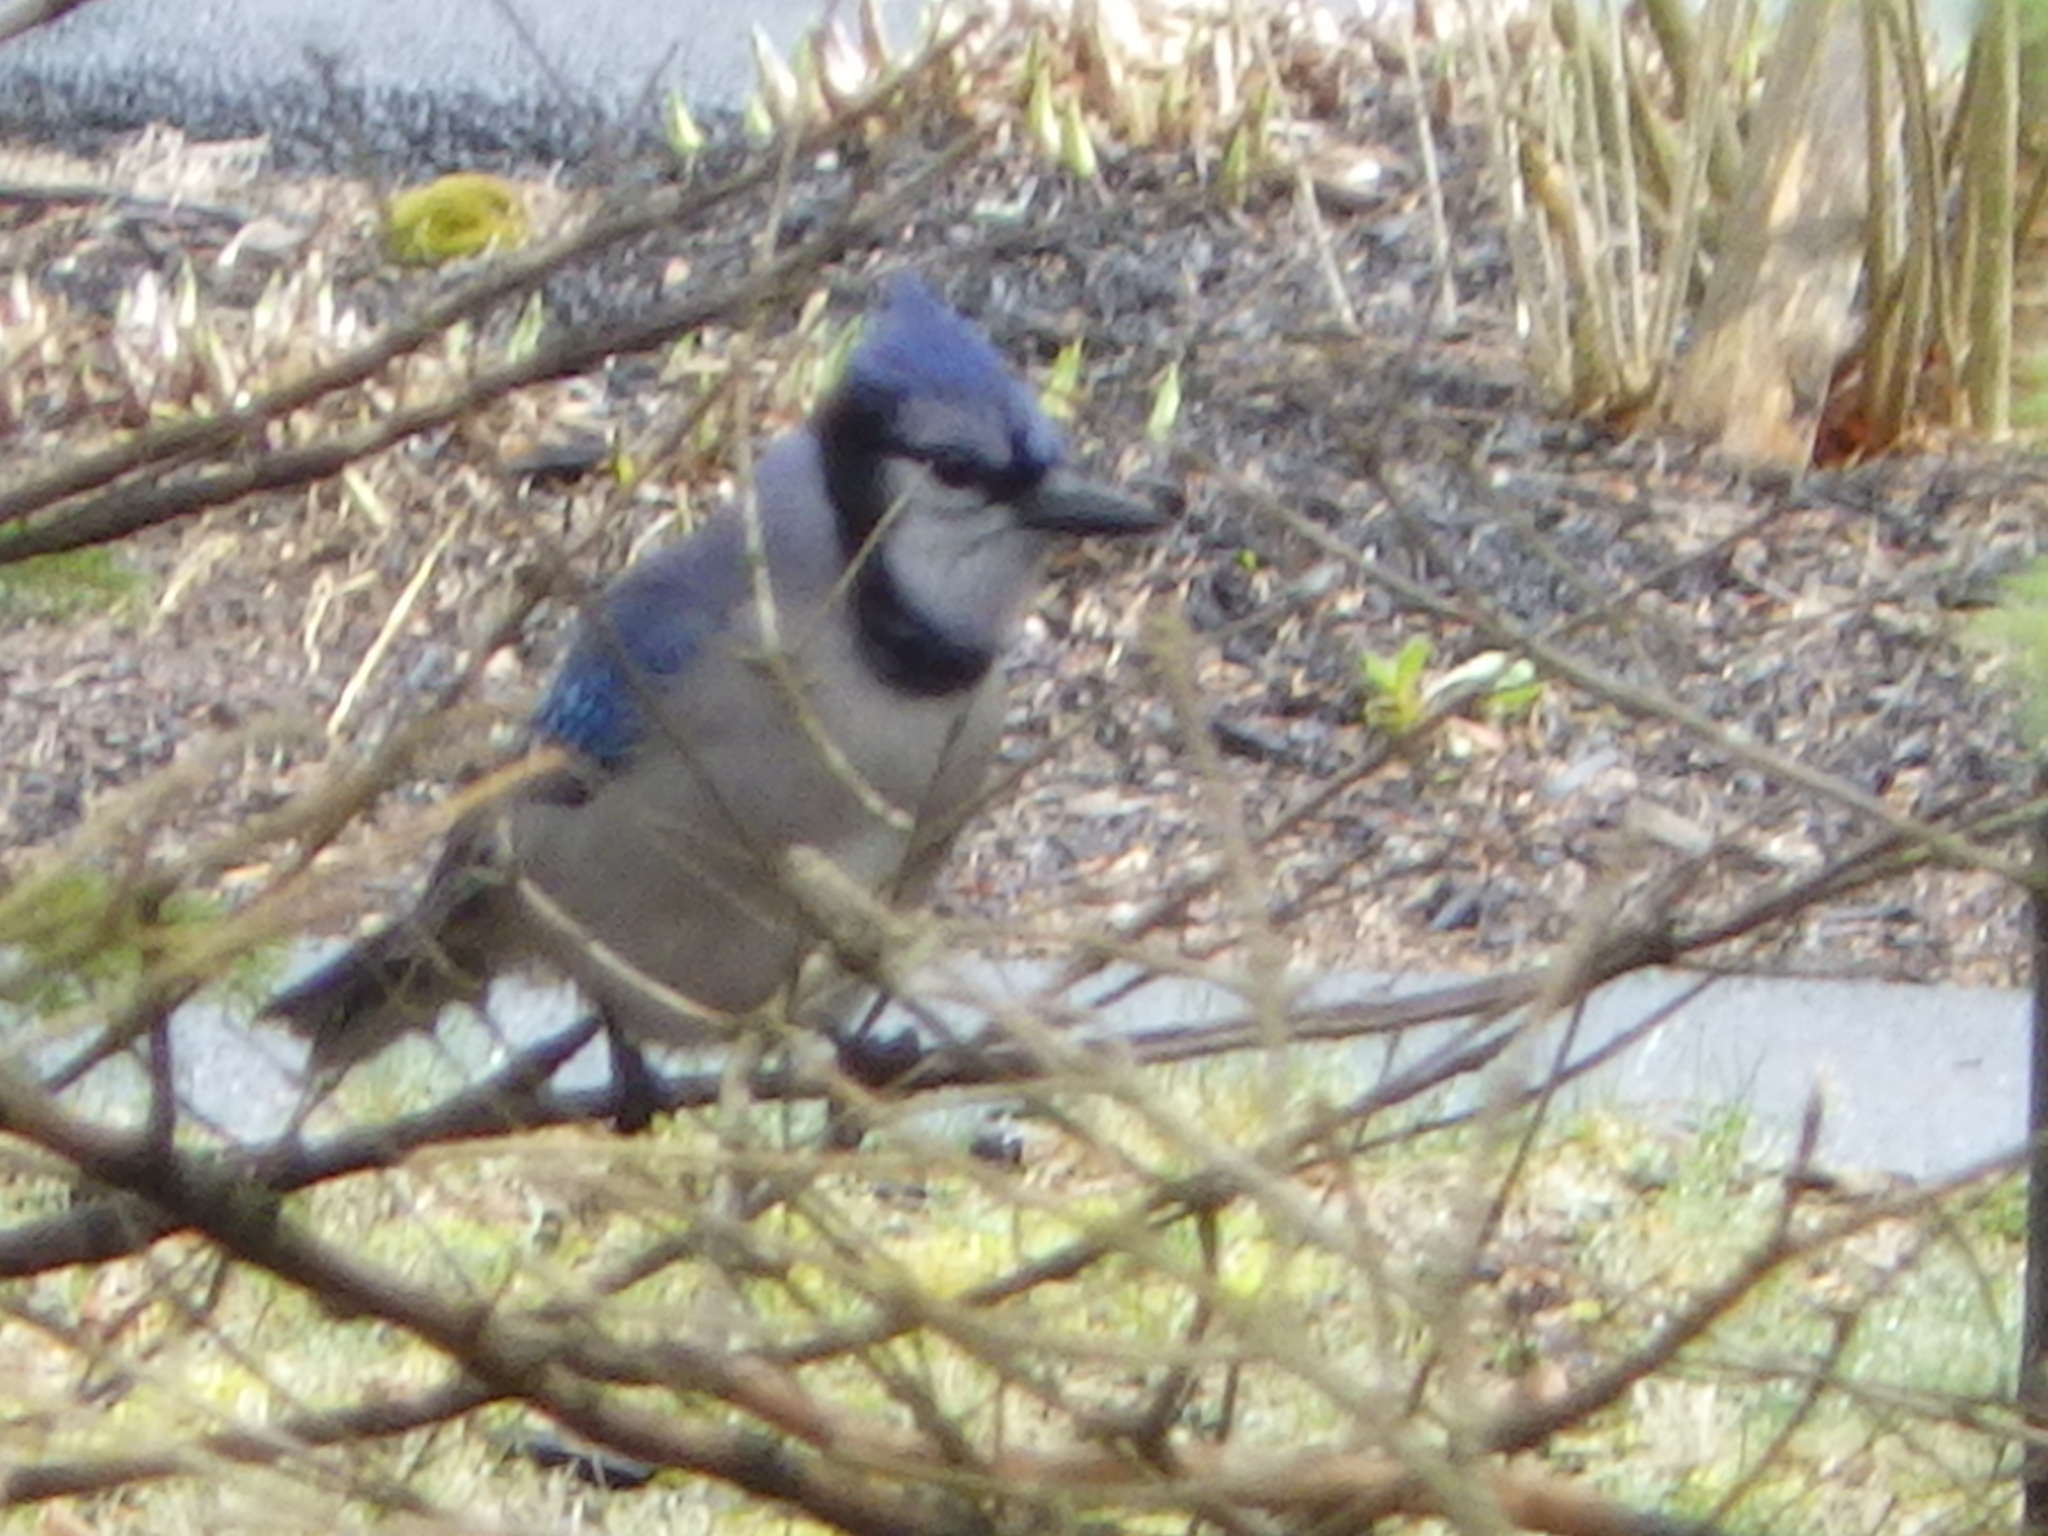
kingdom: Animalia
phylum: Chordata
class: Aves
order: Passeriformes
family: Corvidae
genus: Cyanocitta
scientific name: Cyanocitta cristata
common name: Blue jay
